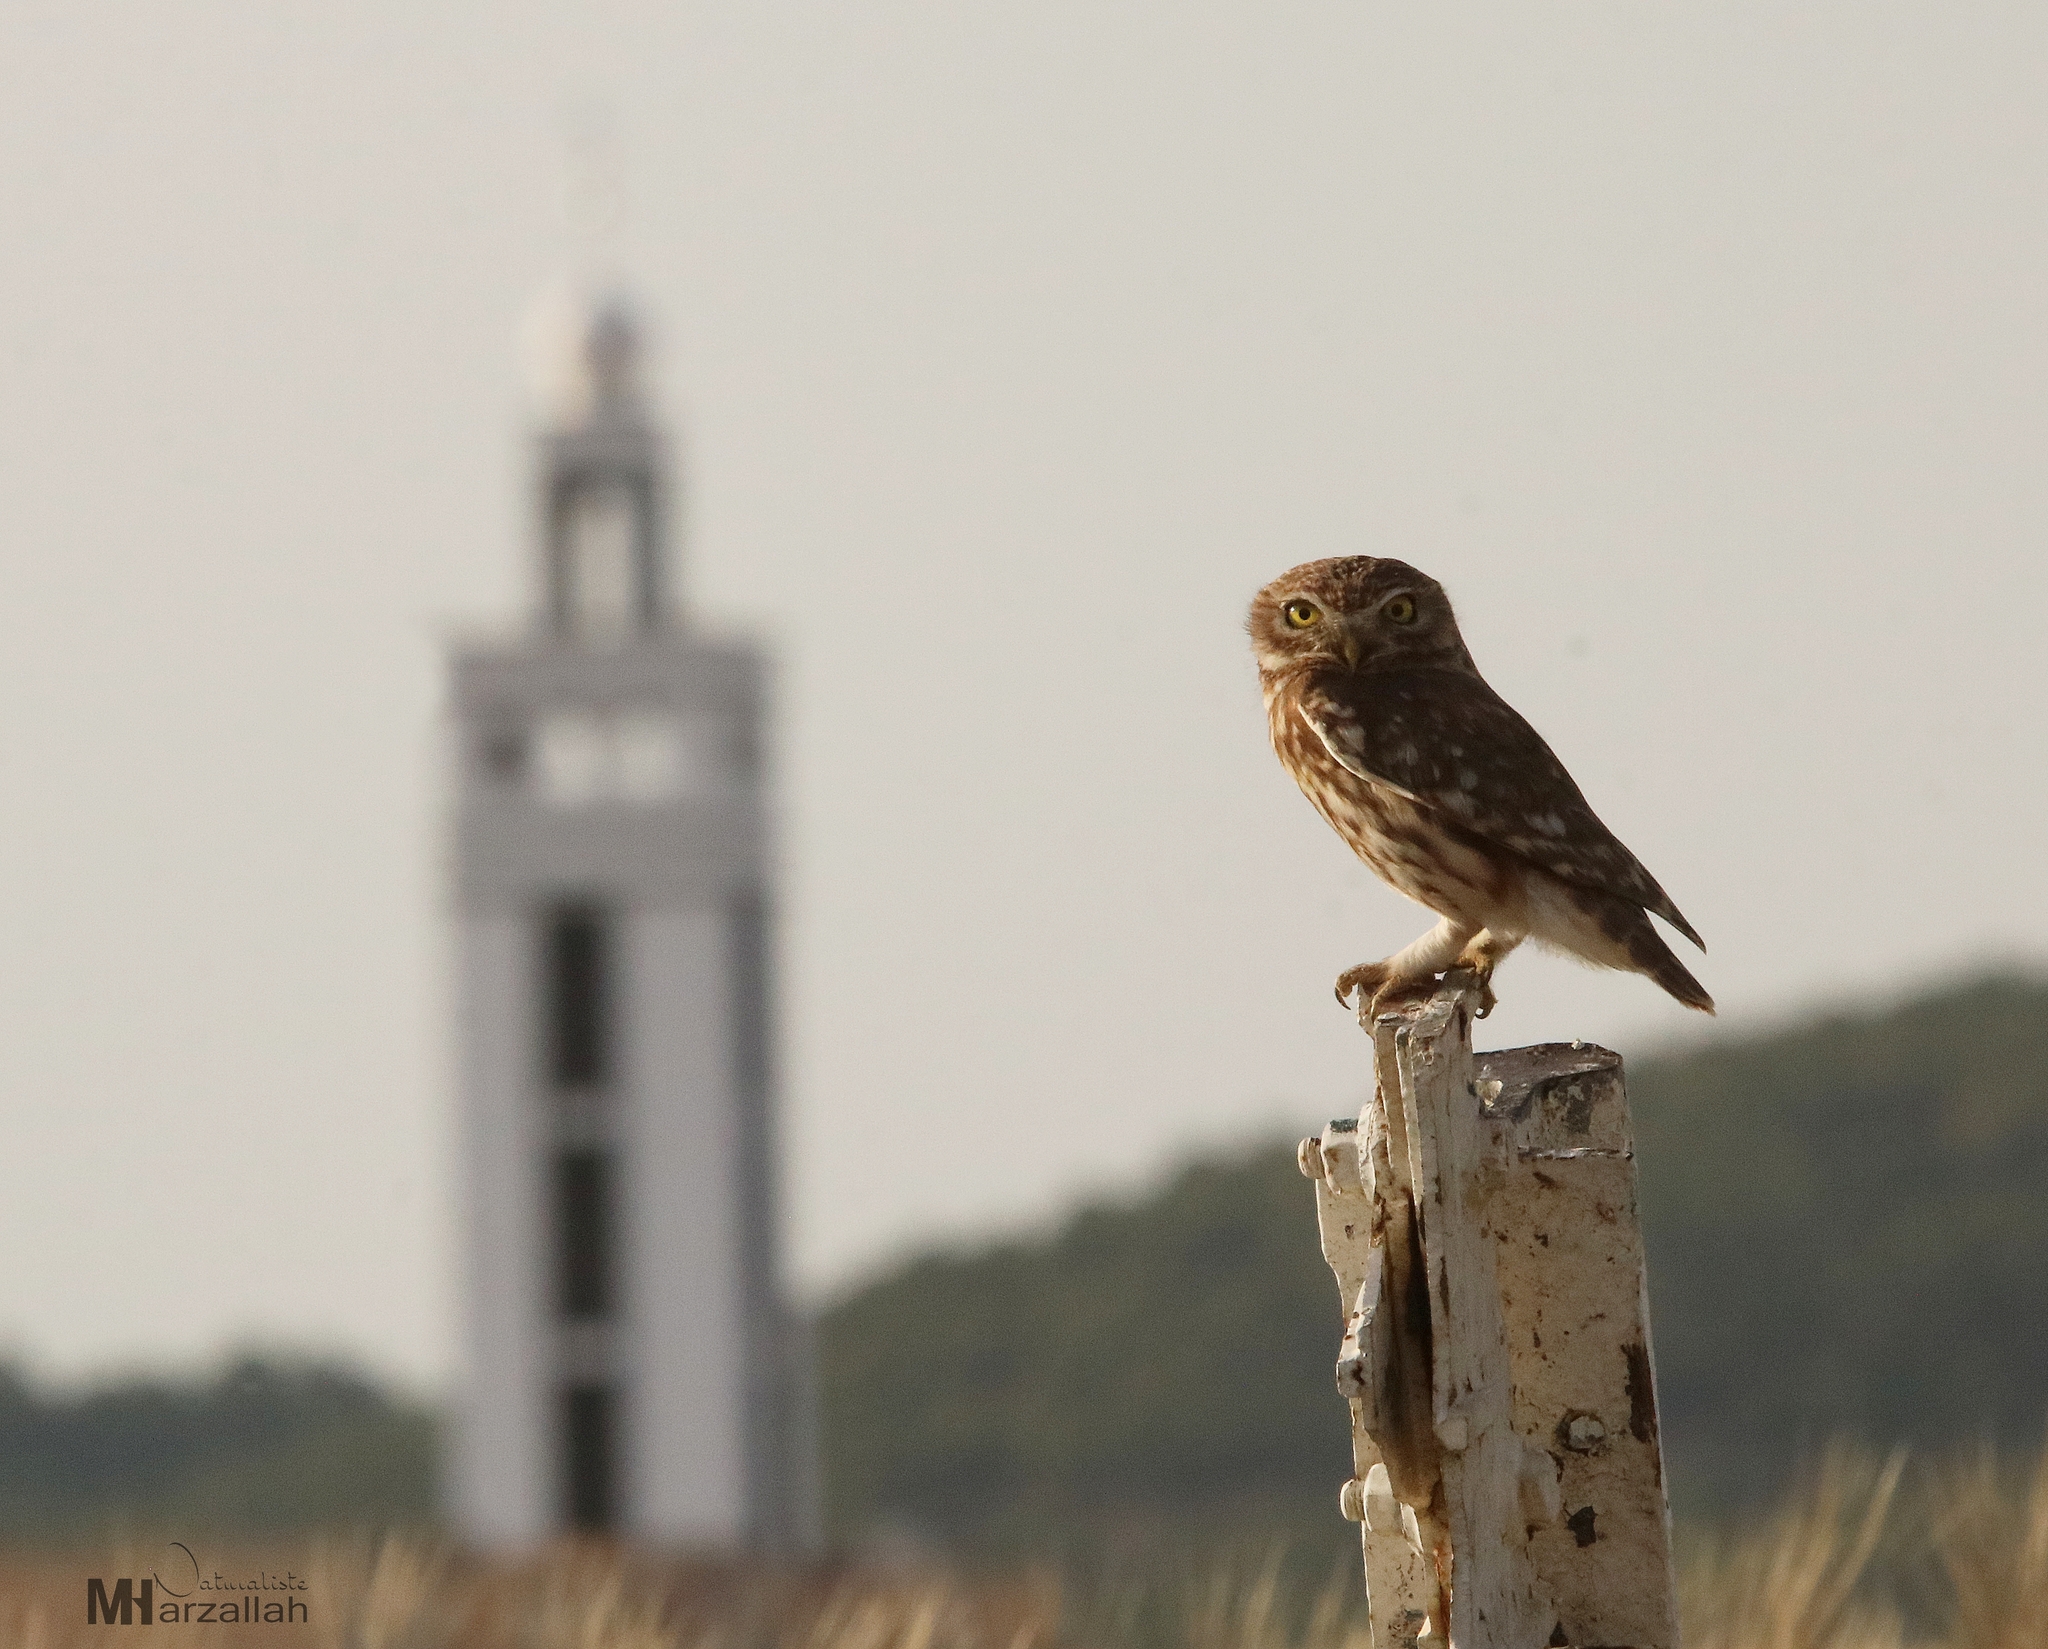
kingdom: Animalia
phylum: Chordata
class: Aves
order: Strigiformes
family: Strigidae
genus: Athene
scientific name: Athene noctua
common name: Little owl
